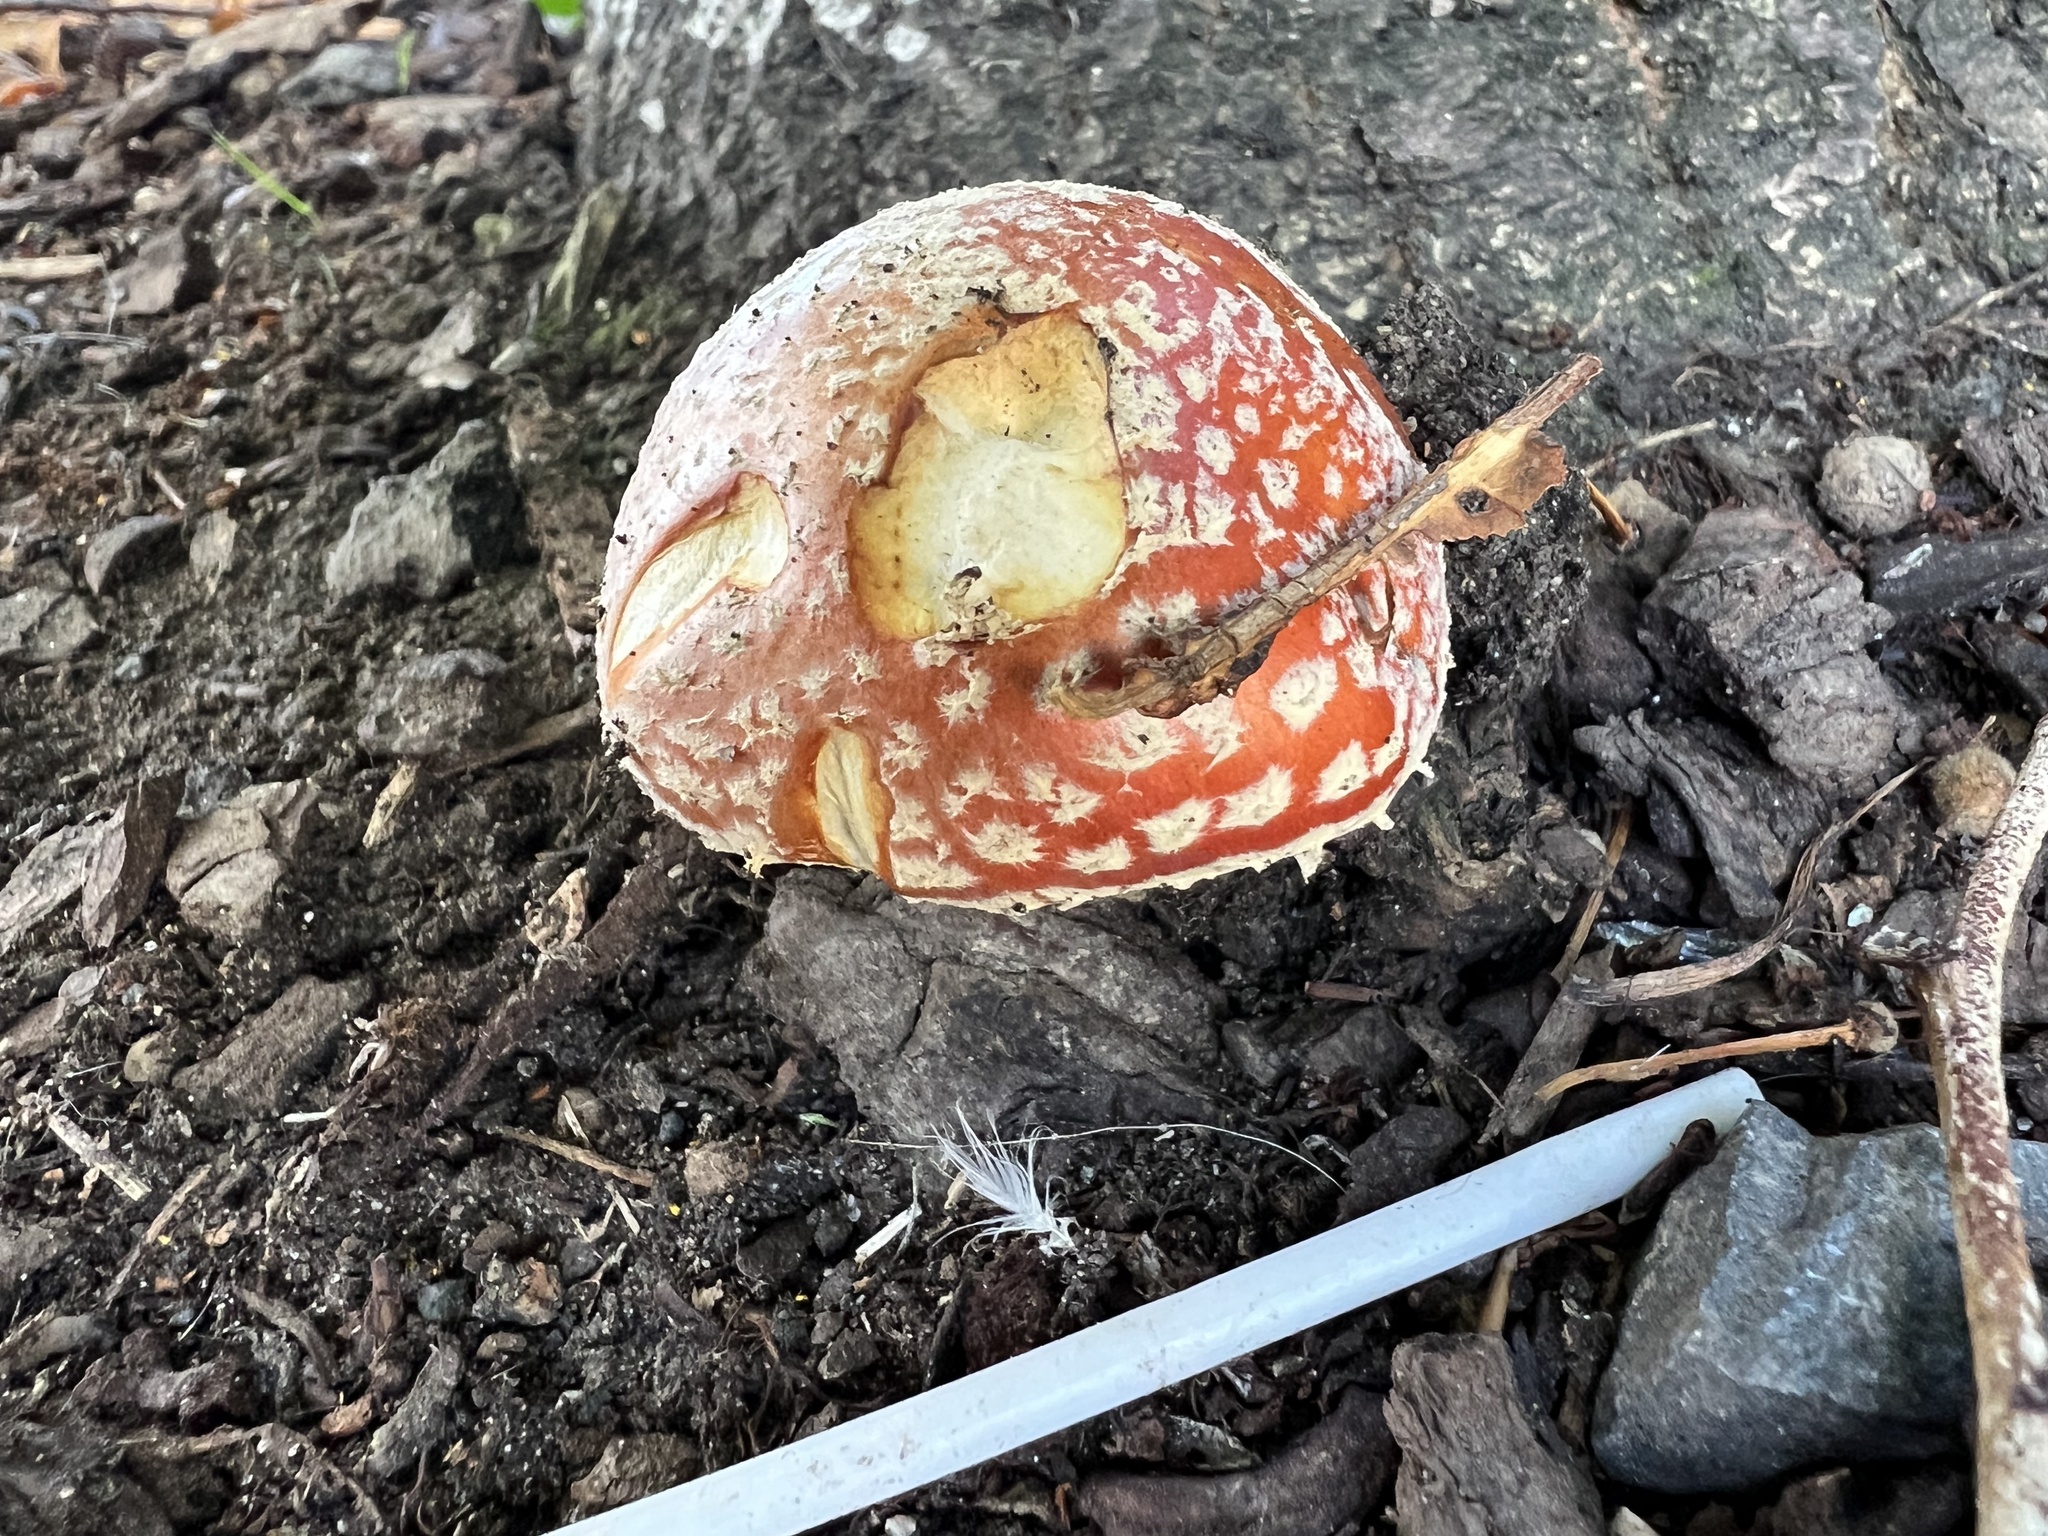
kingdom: Fungi
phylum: Basidiomycota
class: Agaricomycetes
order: Agaricales
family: Amanitaceae
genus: Amanita
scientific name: Amanita muscaria
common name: Fly agaric
